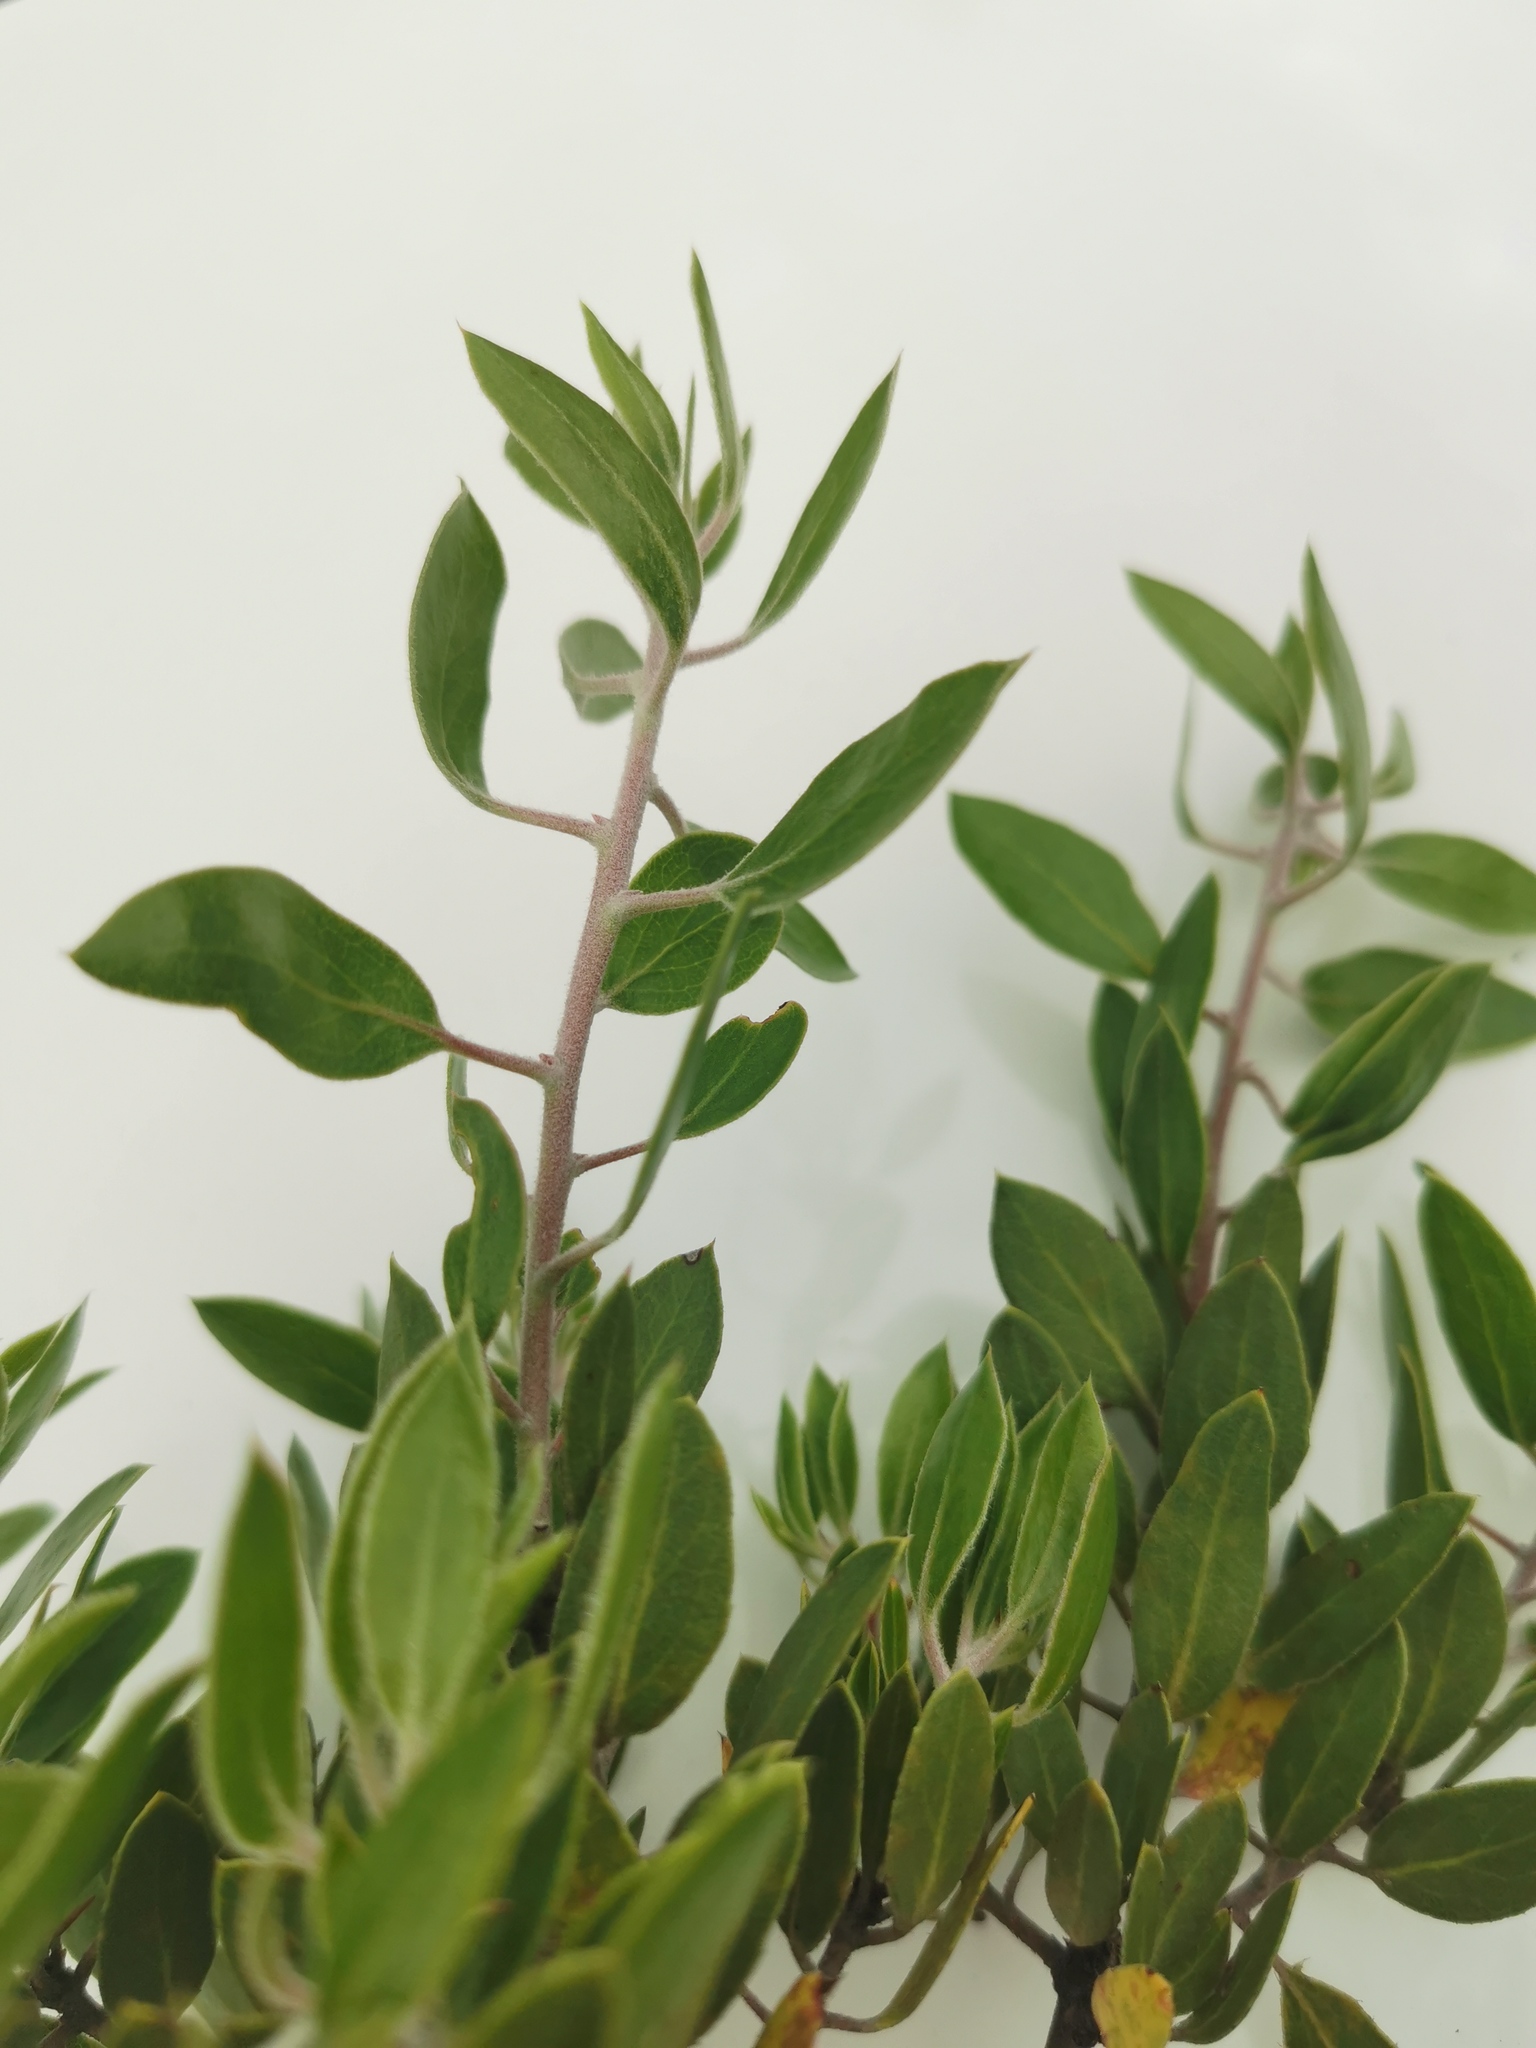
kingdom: Plantae
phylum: Tracheophyta
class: Magnoliopsida
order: Ericales
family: Ericaceae
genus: Arctostaphylos
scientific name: Arctostaphylos pungens
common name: Mexican manzanita
